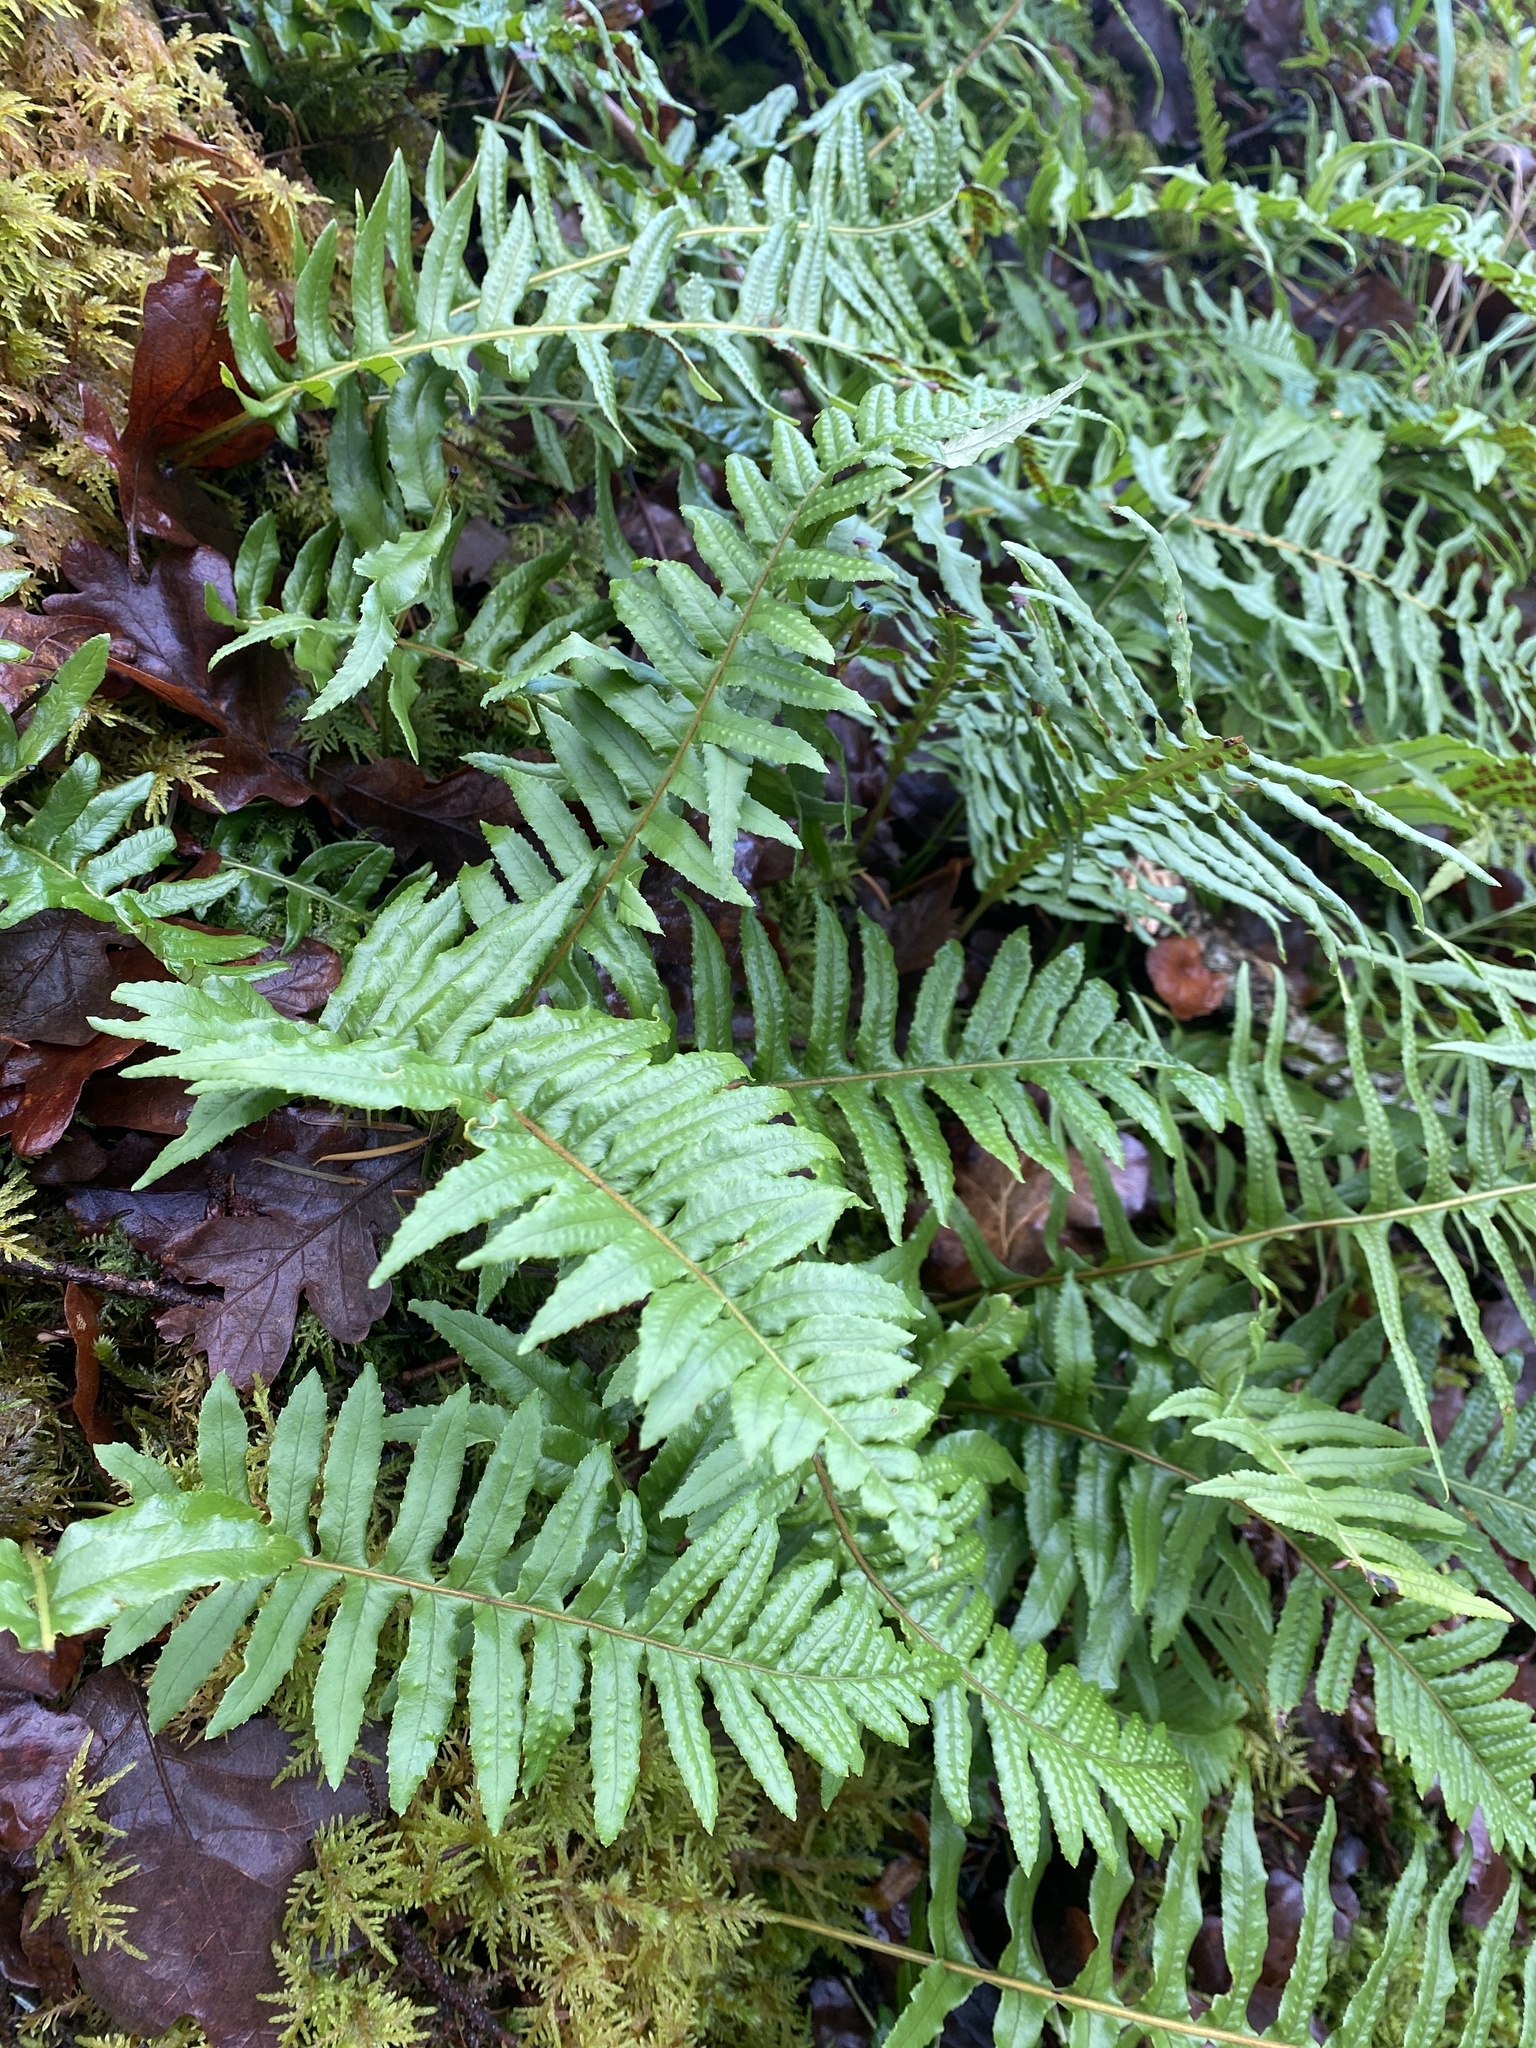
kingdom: Plantae
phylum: Tracheophyta
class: Polypodiopsida
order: Polypodiales
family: Polypodiaceae
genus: Polypodium
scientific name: Polypodium glycyrrhiza
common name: Licorice fern
